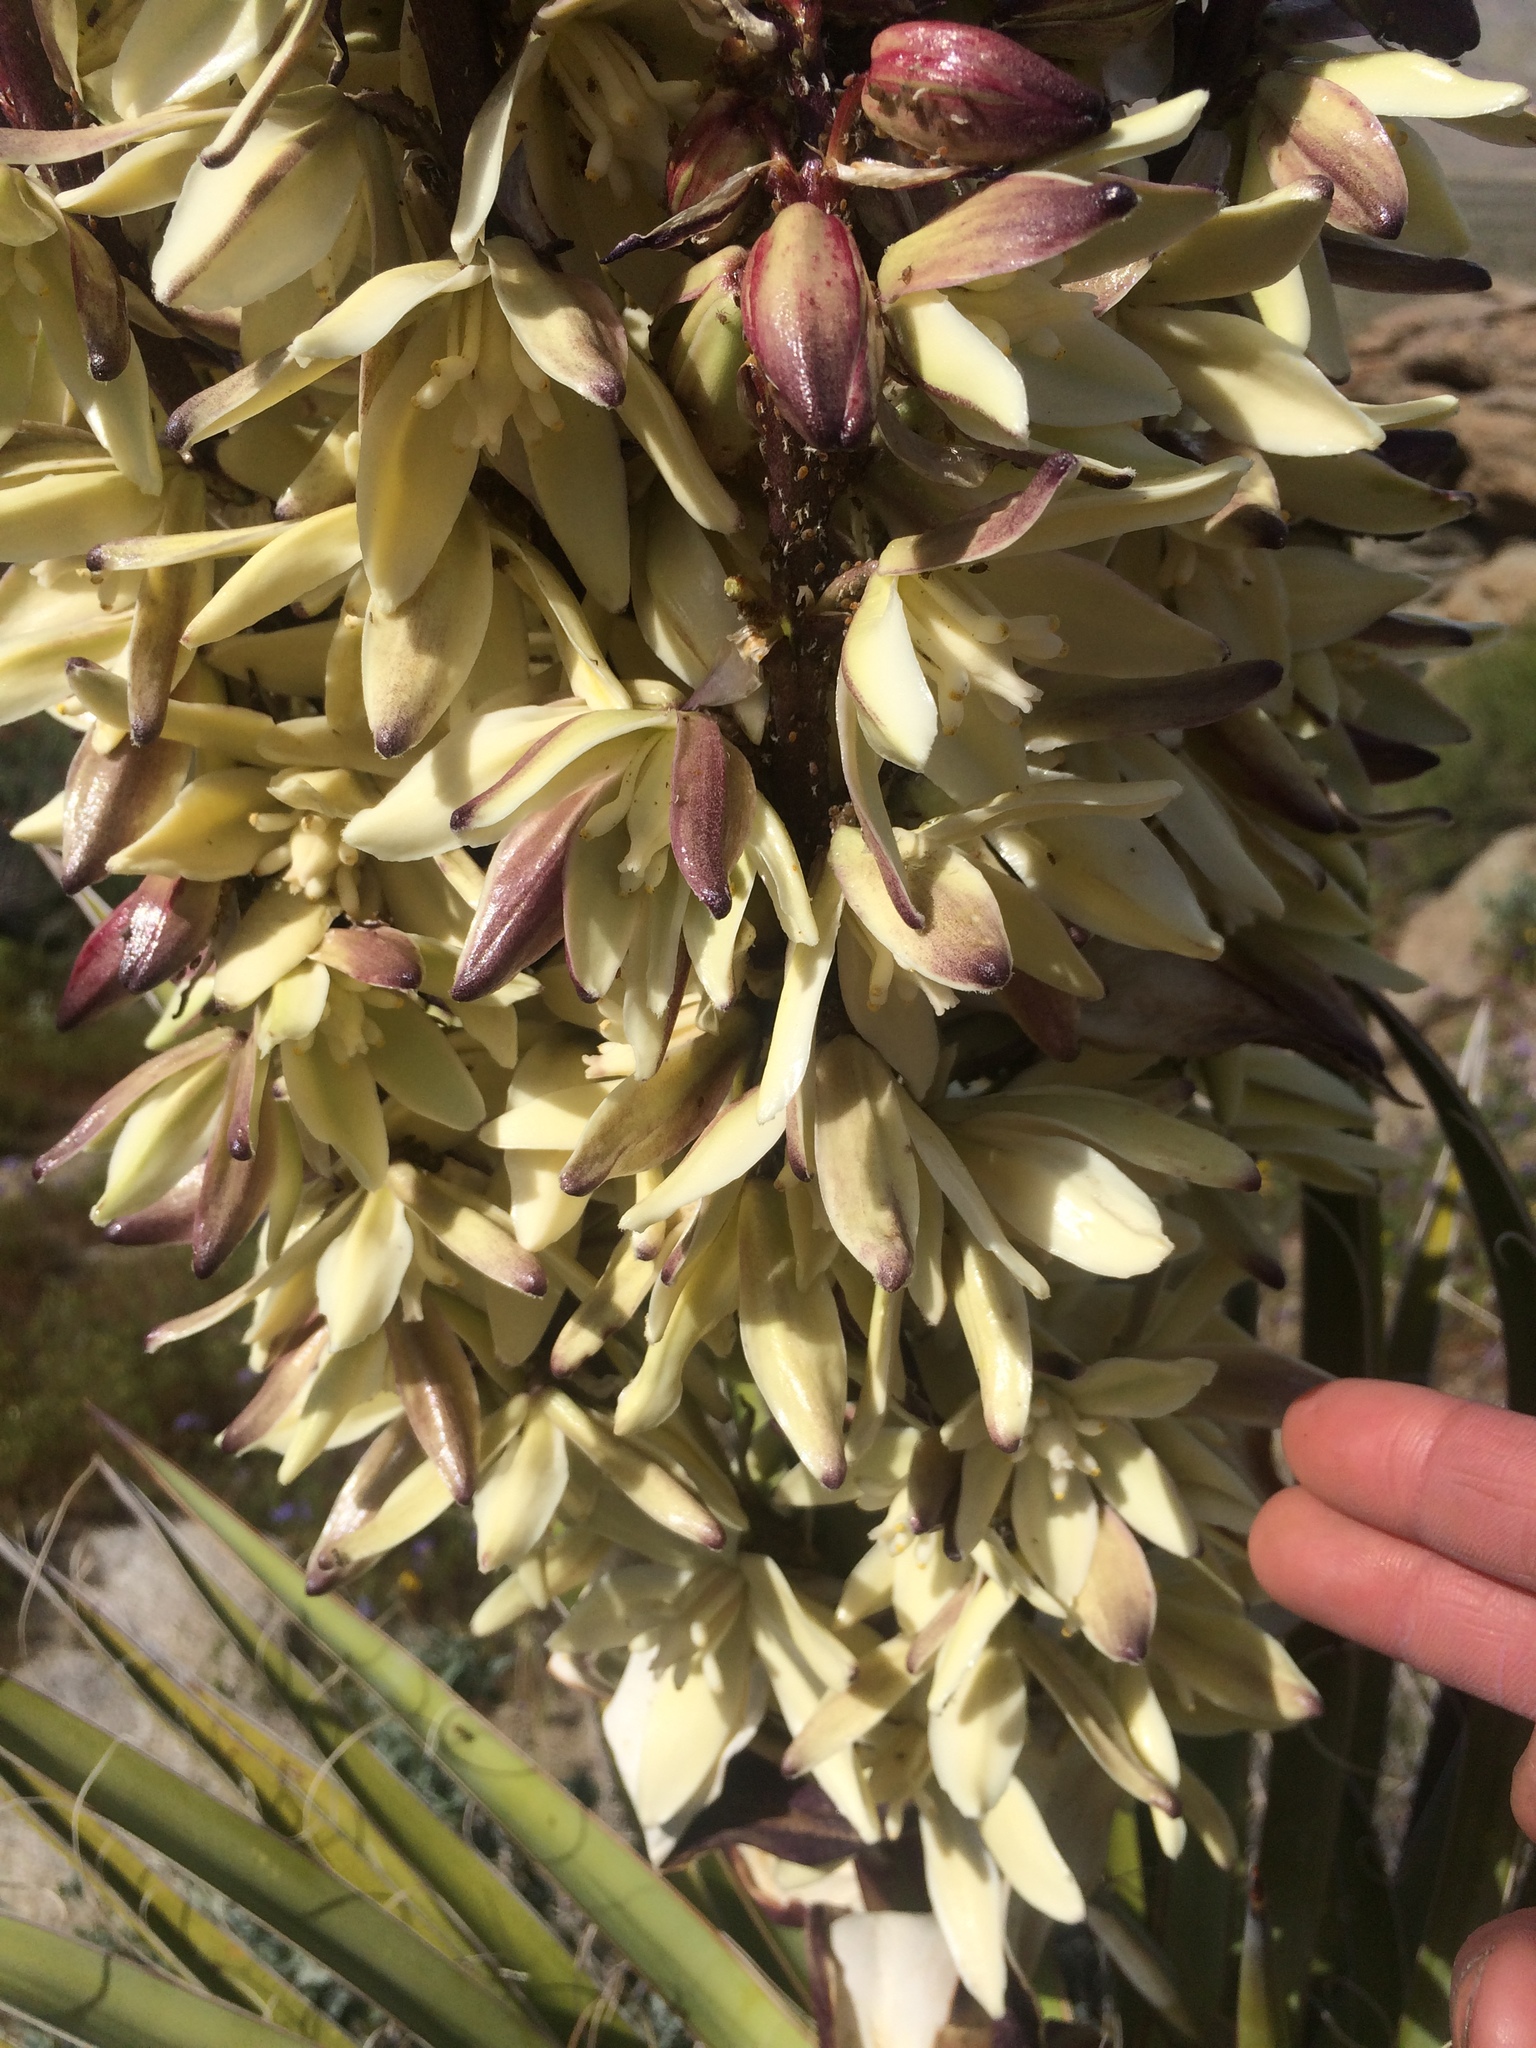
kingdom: Plantae
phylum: Tracheophyta
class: Liliopsida
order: Asparagales
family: Asparagaceae
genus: Yucca
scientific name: Yucca schidigera
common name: Mojave yucca
